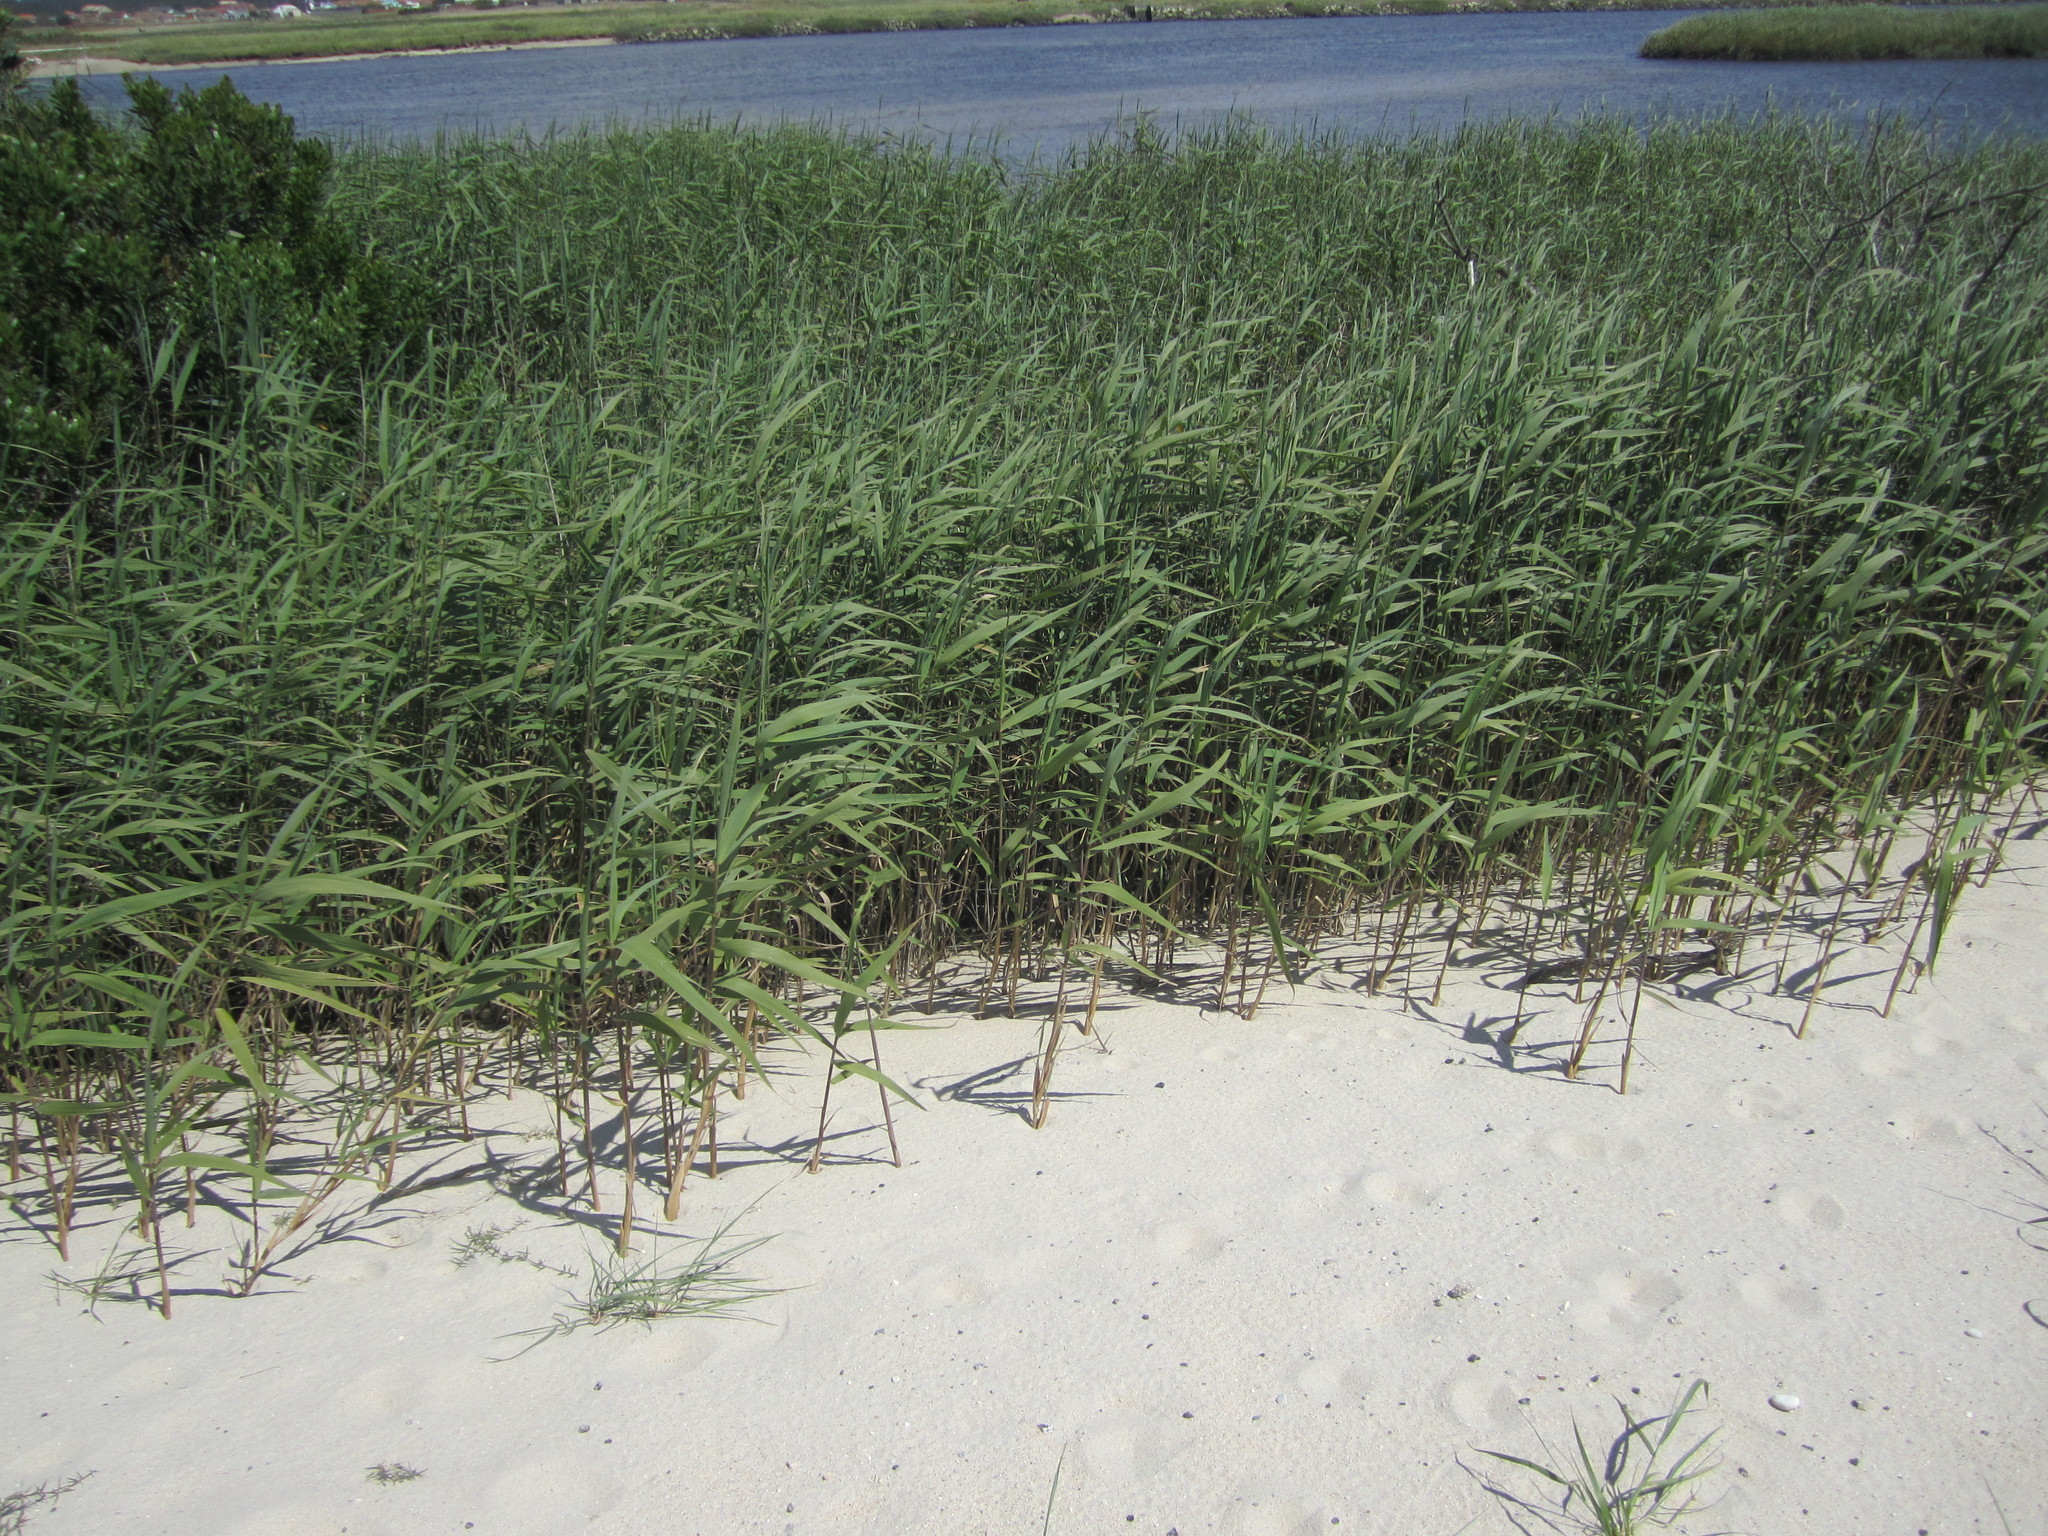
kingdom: Plantae
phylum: Tracheophyta
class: Liliopsida
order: Poales
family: Poaceae
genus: Phragmites
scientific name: Phragmites australis
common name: Common reed
